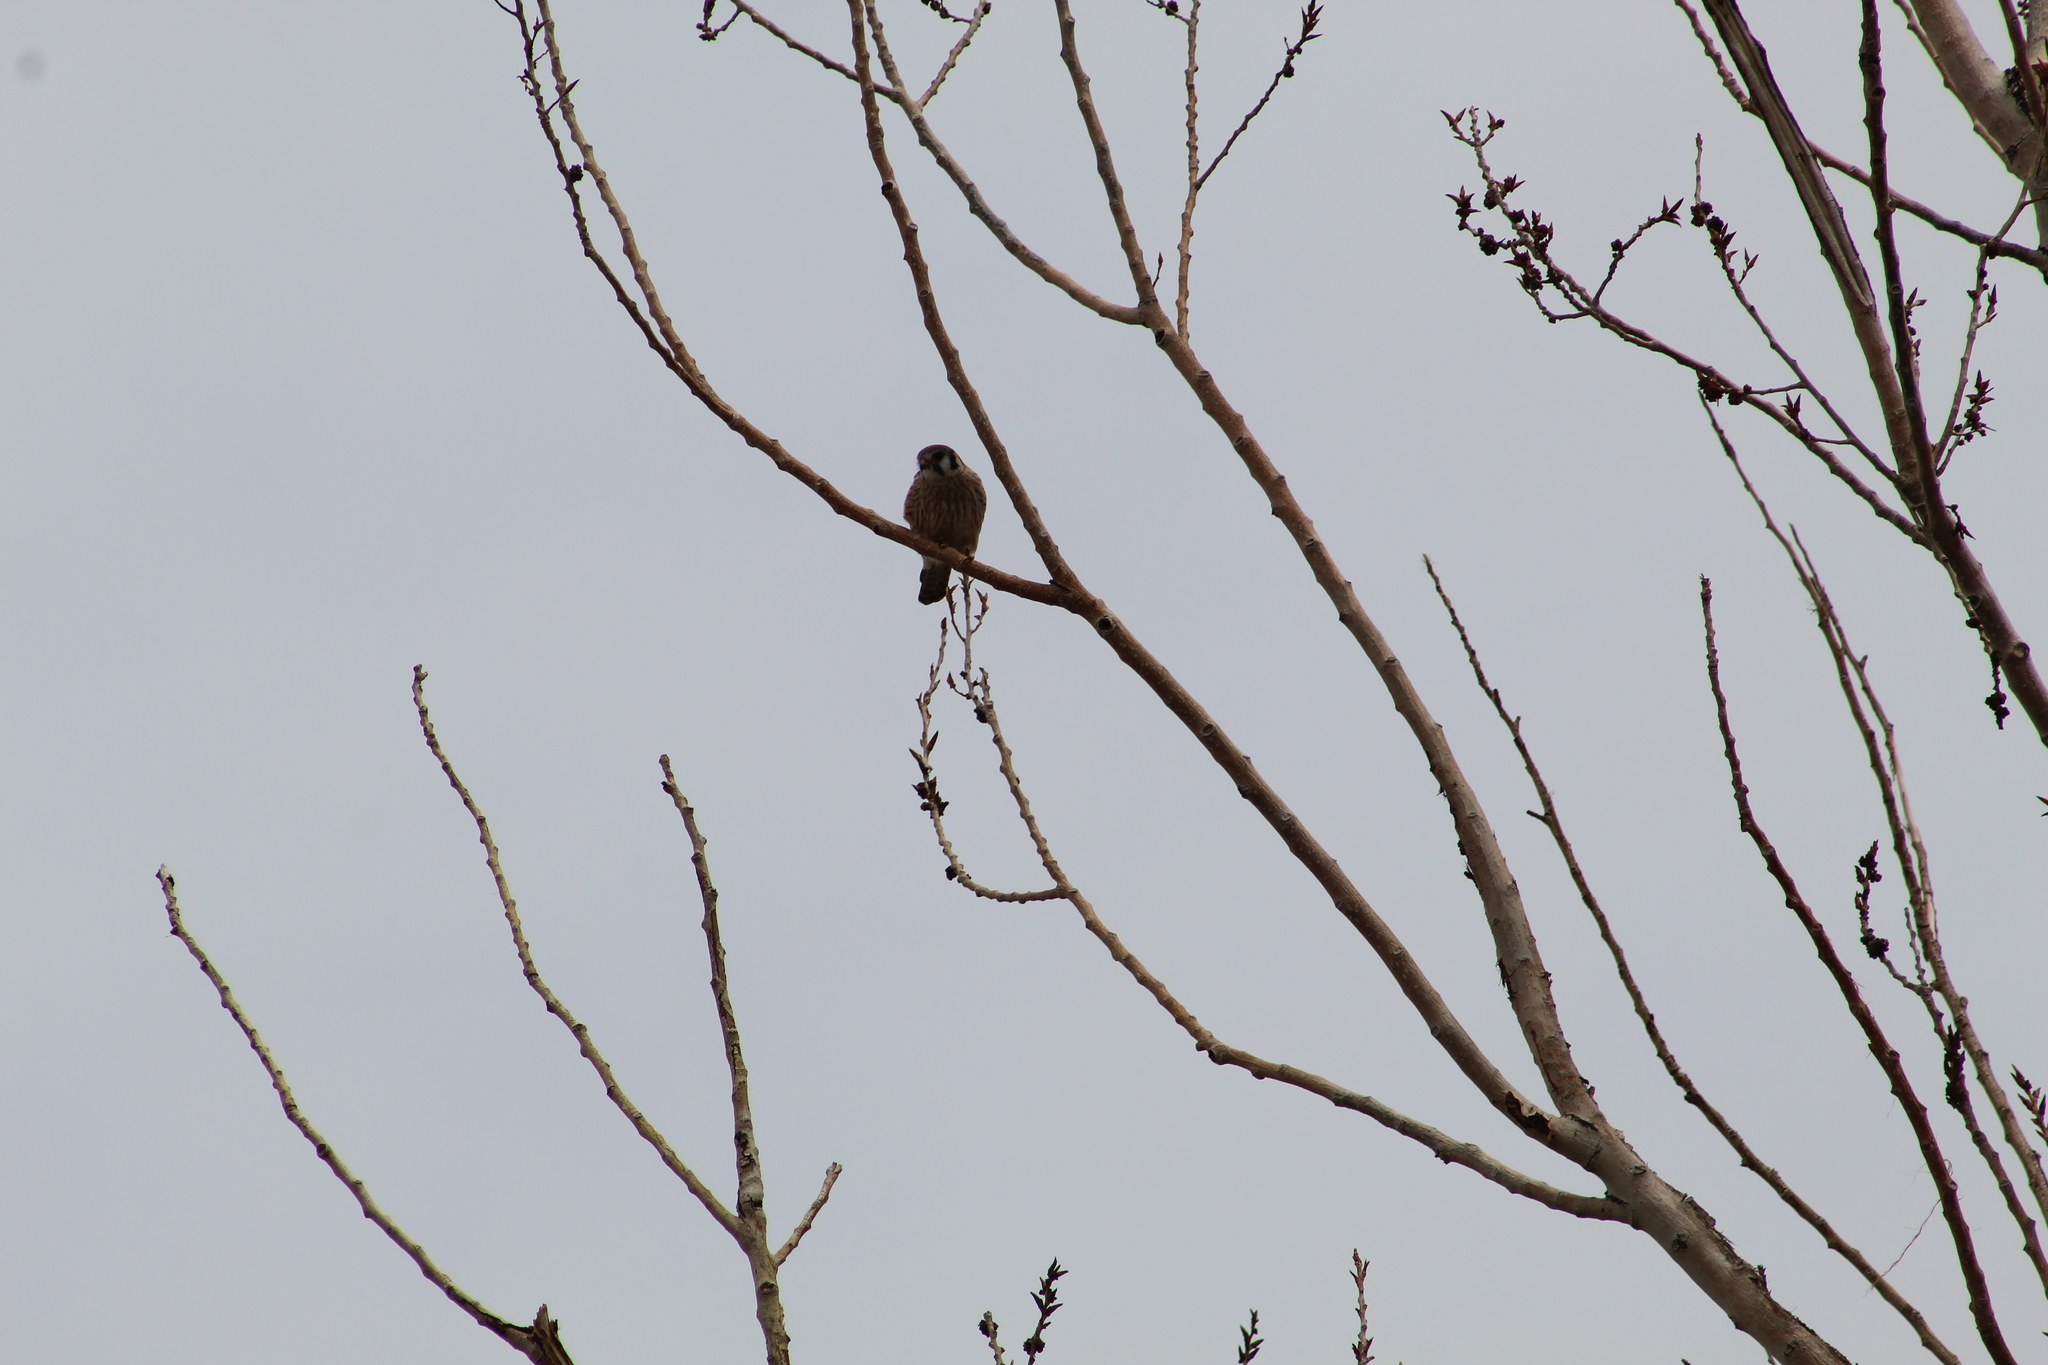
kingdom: Animalia
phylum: Chordata
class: Aves
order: Falconiformes
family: Falconidae
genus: Falco
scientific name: Falco sparverius
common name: American kestrel
